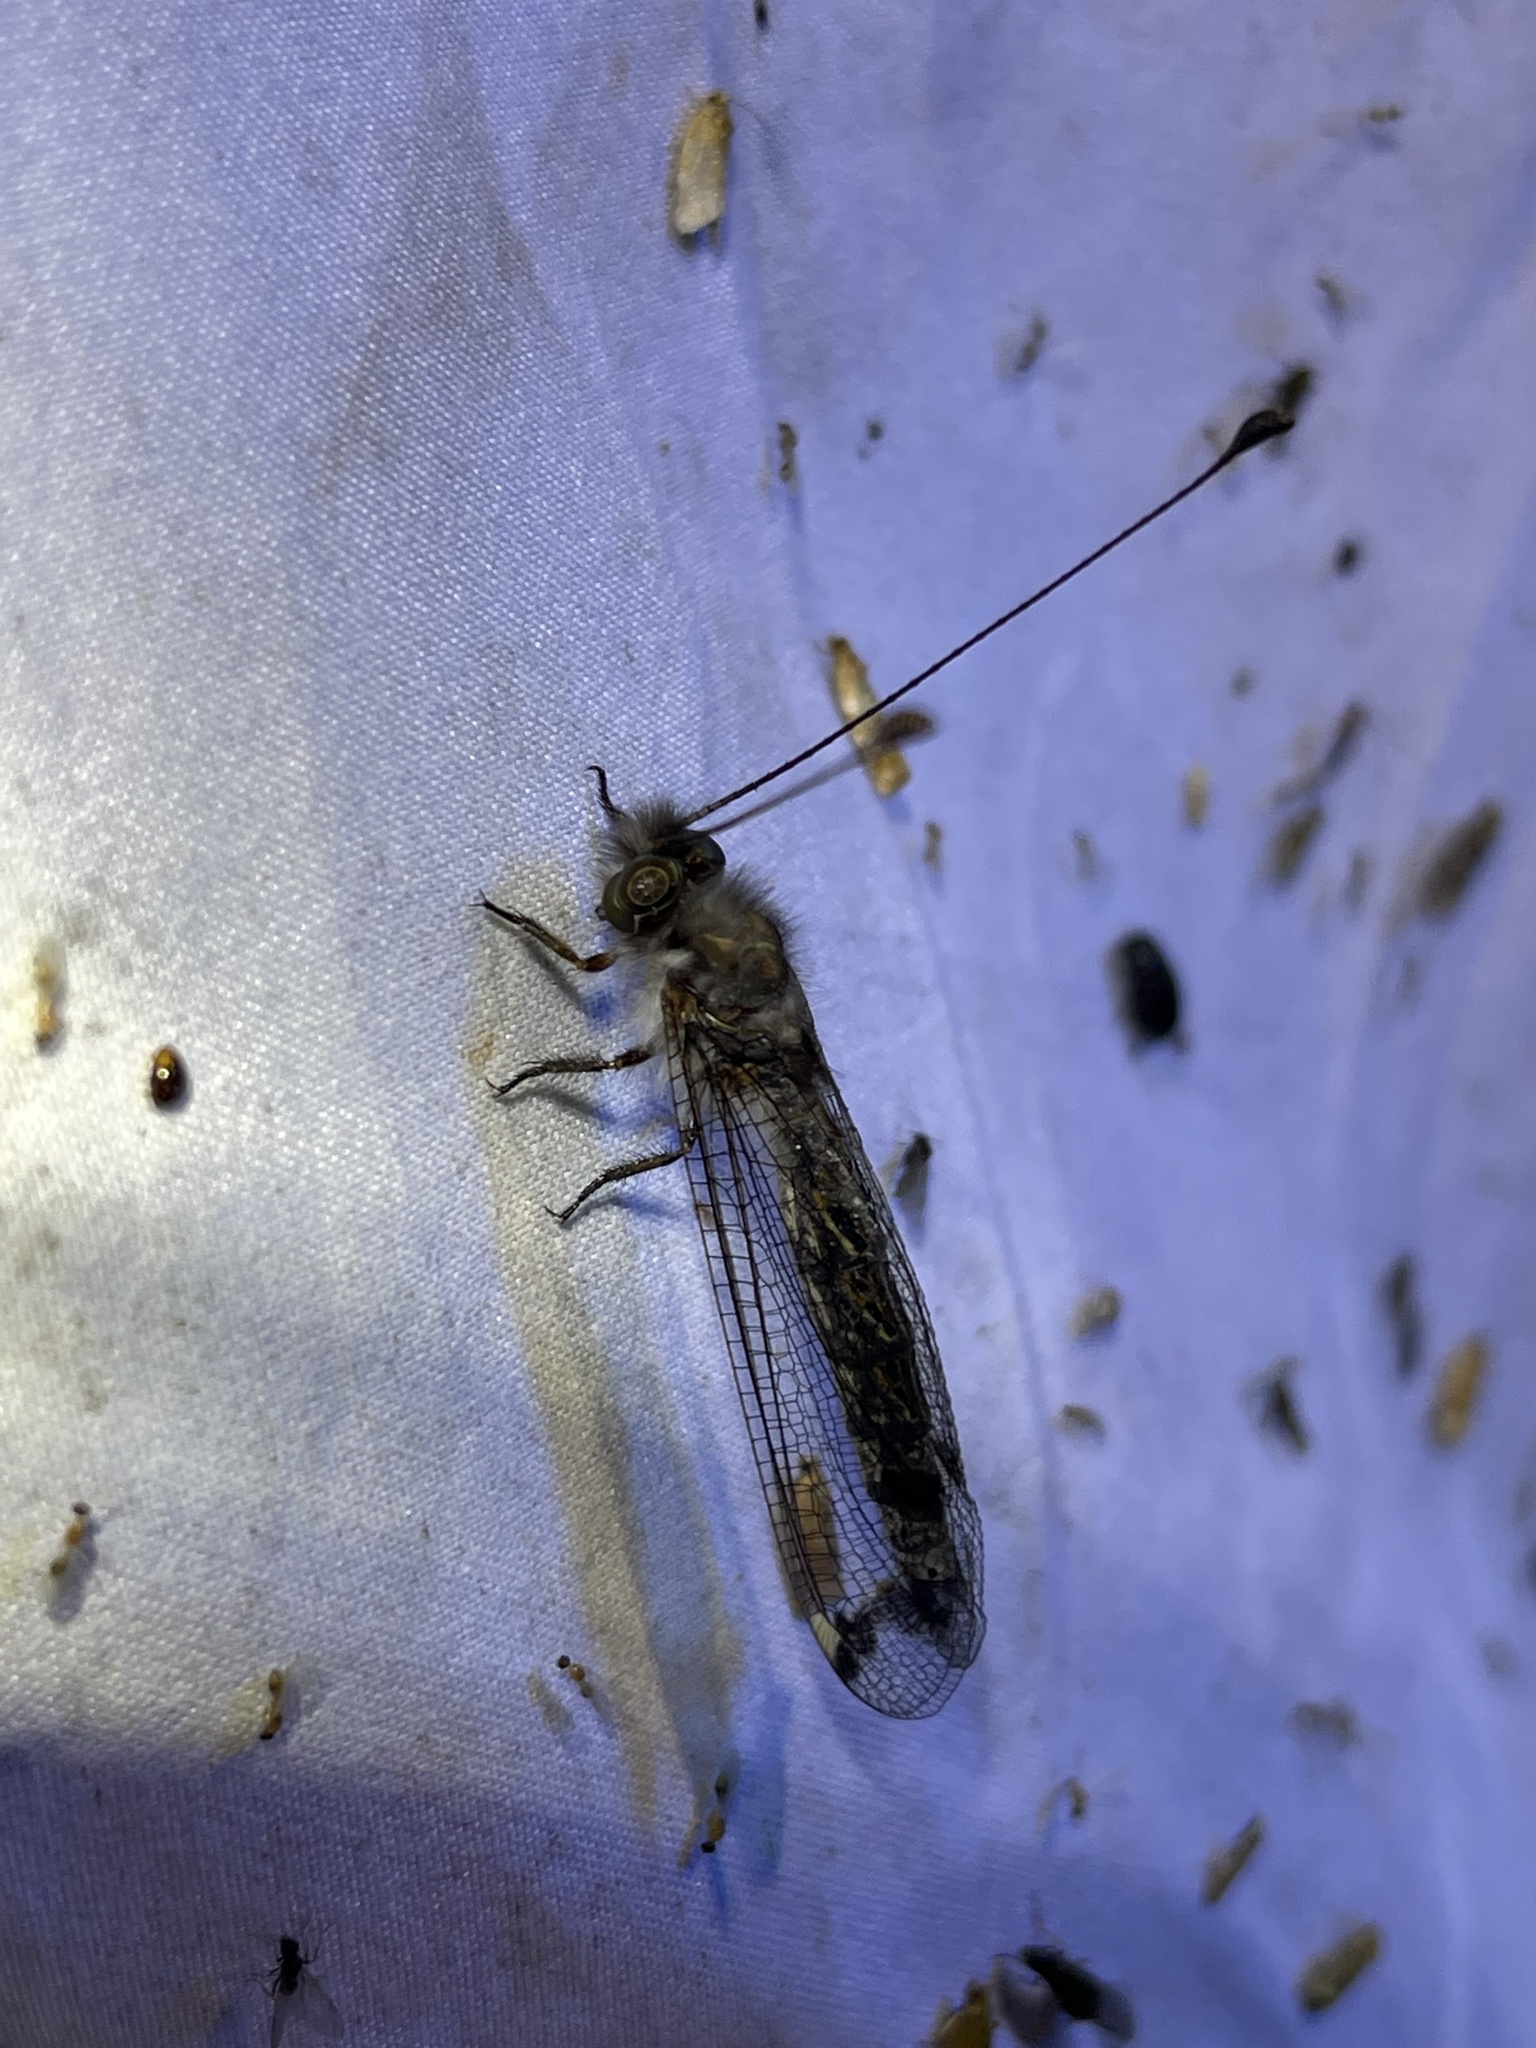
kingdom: Animalia
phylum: Arthropoda
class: Insecta
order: Neuroptera
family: Ascalaphidae
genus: Ululodes
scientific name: Ululodes quadripunctatus
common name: Four-spotted owlfly
